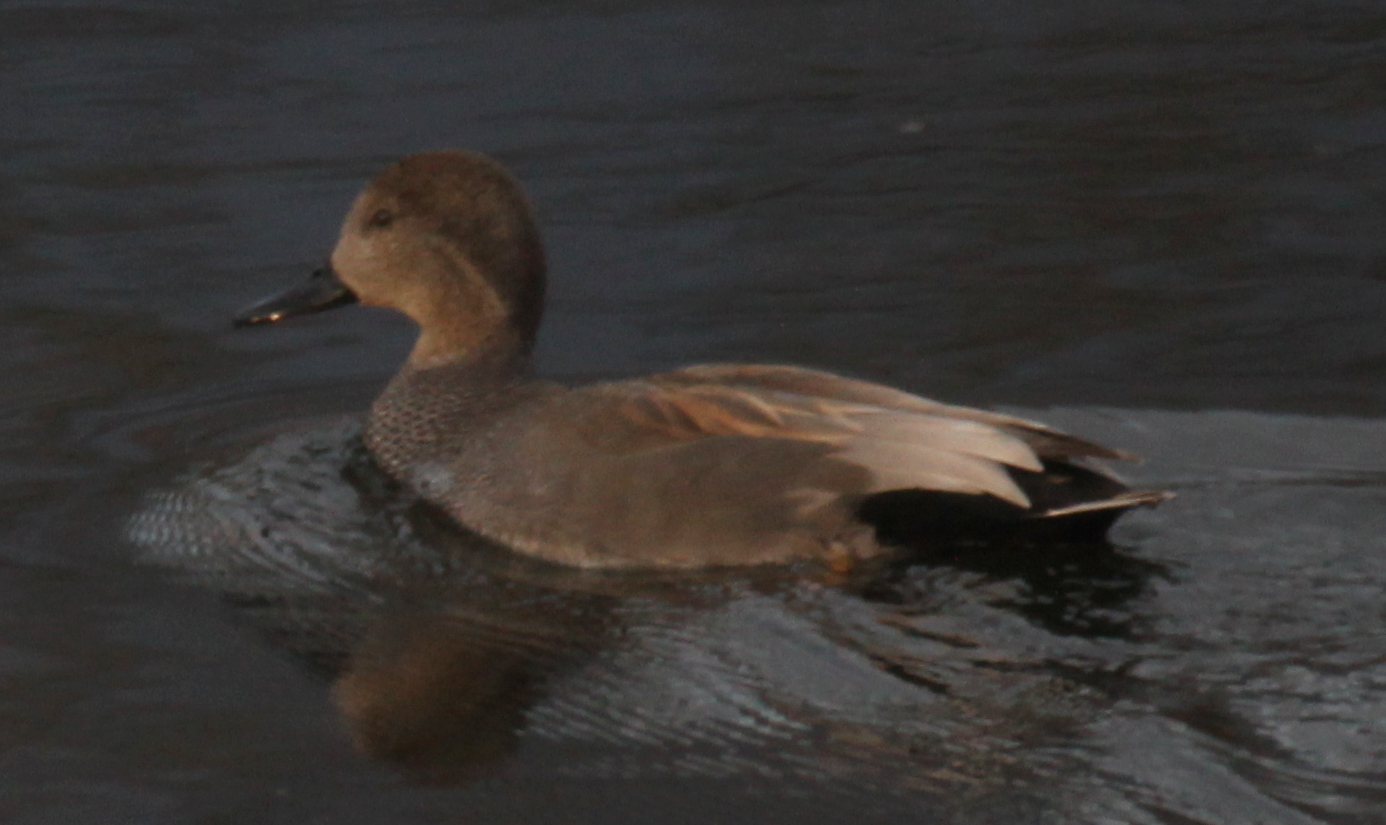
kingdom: Animalia
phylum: Chordata
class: Aves
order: Anseriformes
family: Anatidae
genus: Mareca
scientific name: Mareca strepera
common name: Gadwall
